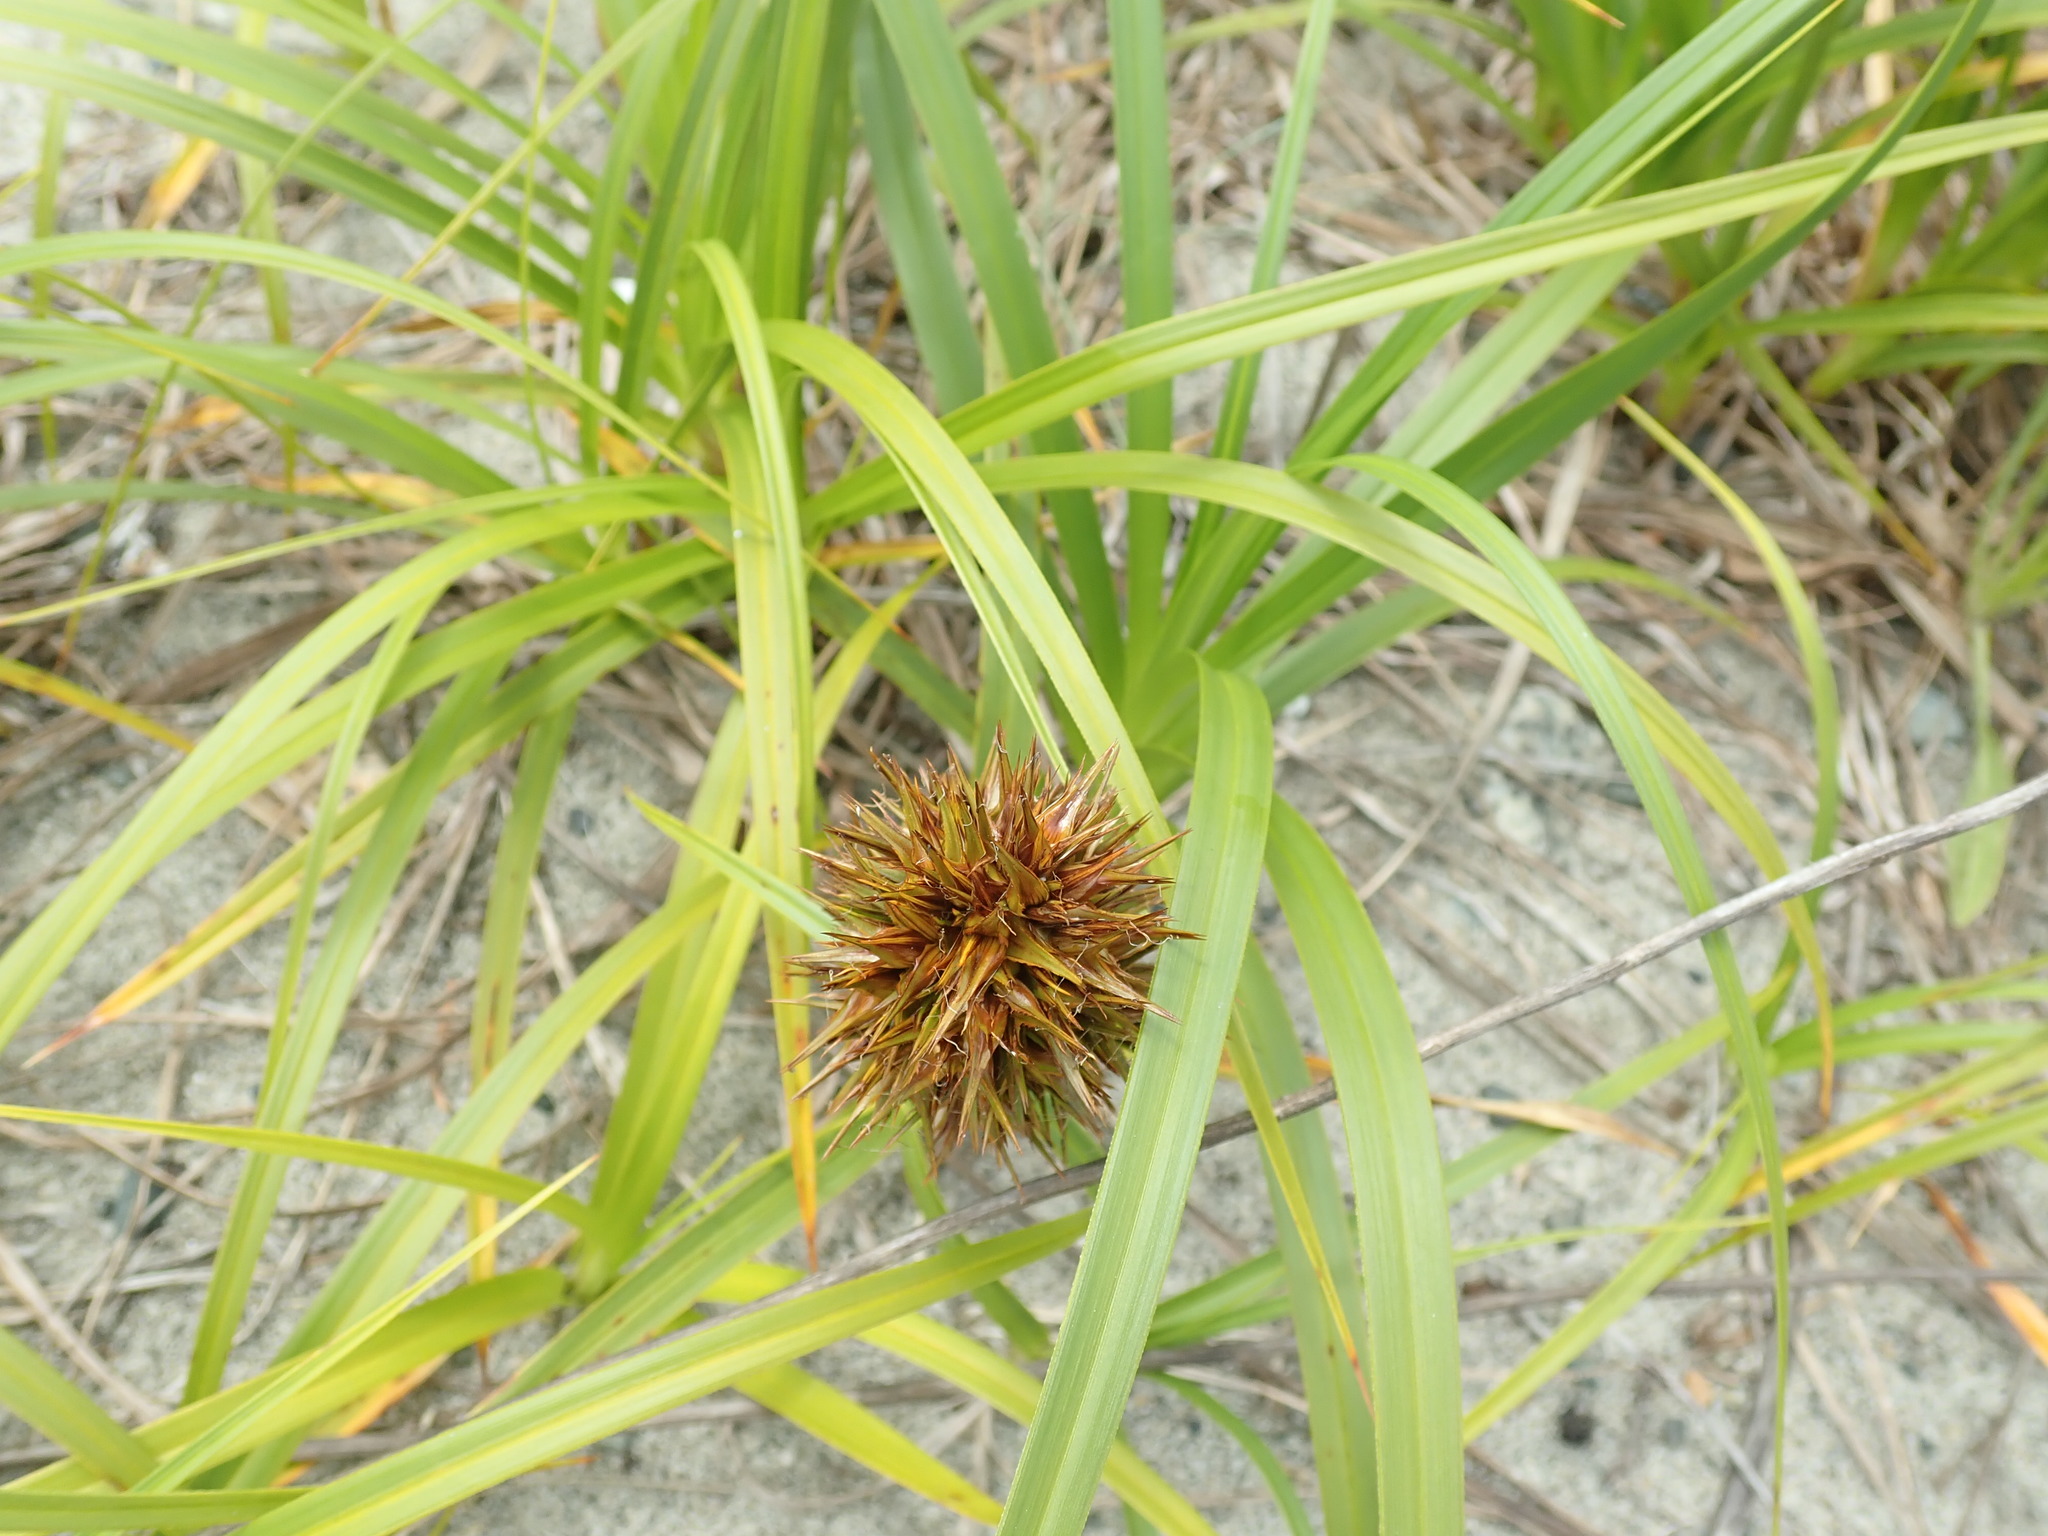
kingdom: Plantae
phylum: Tracheophyta
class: Liliopsida
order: Poales
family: Cyperaceae
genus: Carex
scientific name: Carex macrocephala
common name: Large-head sedge
